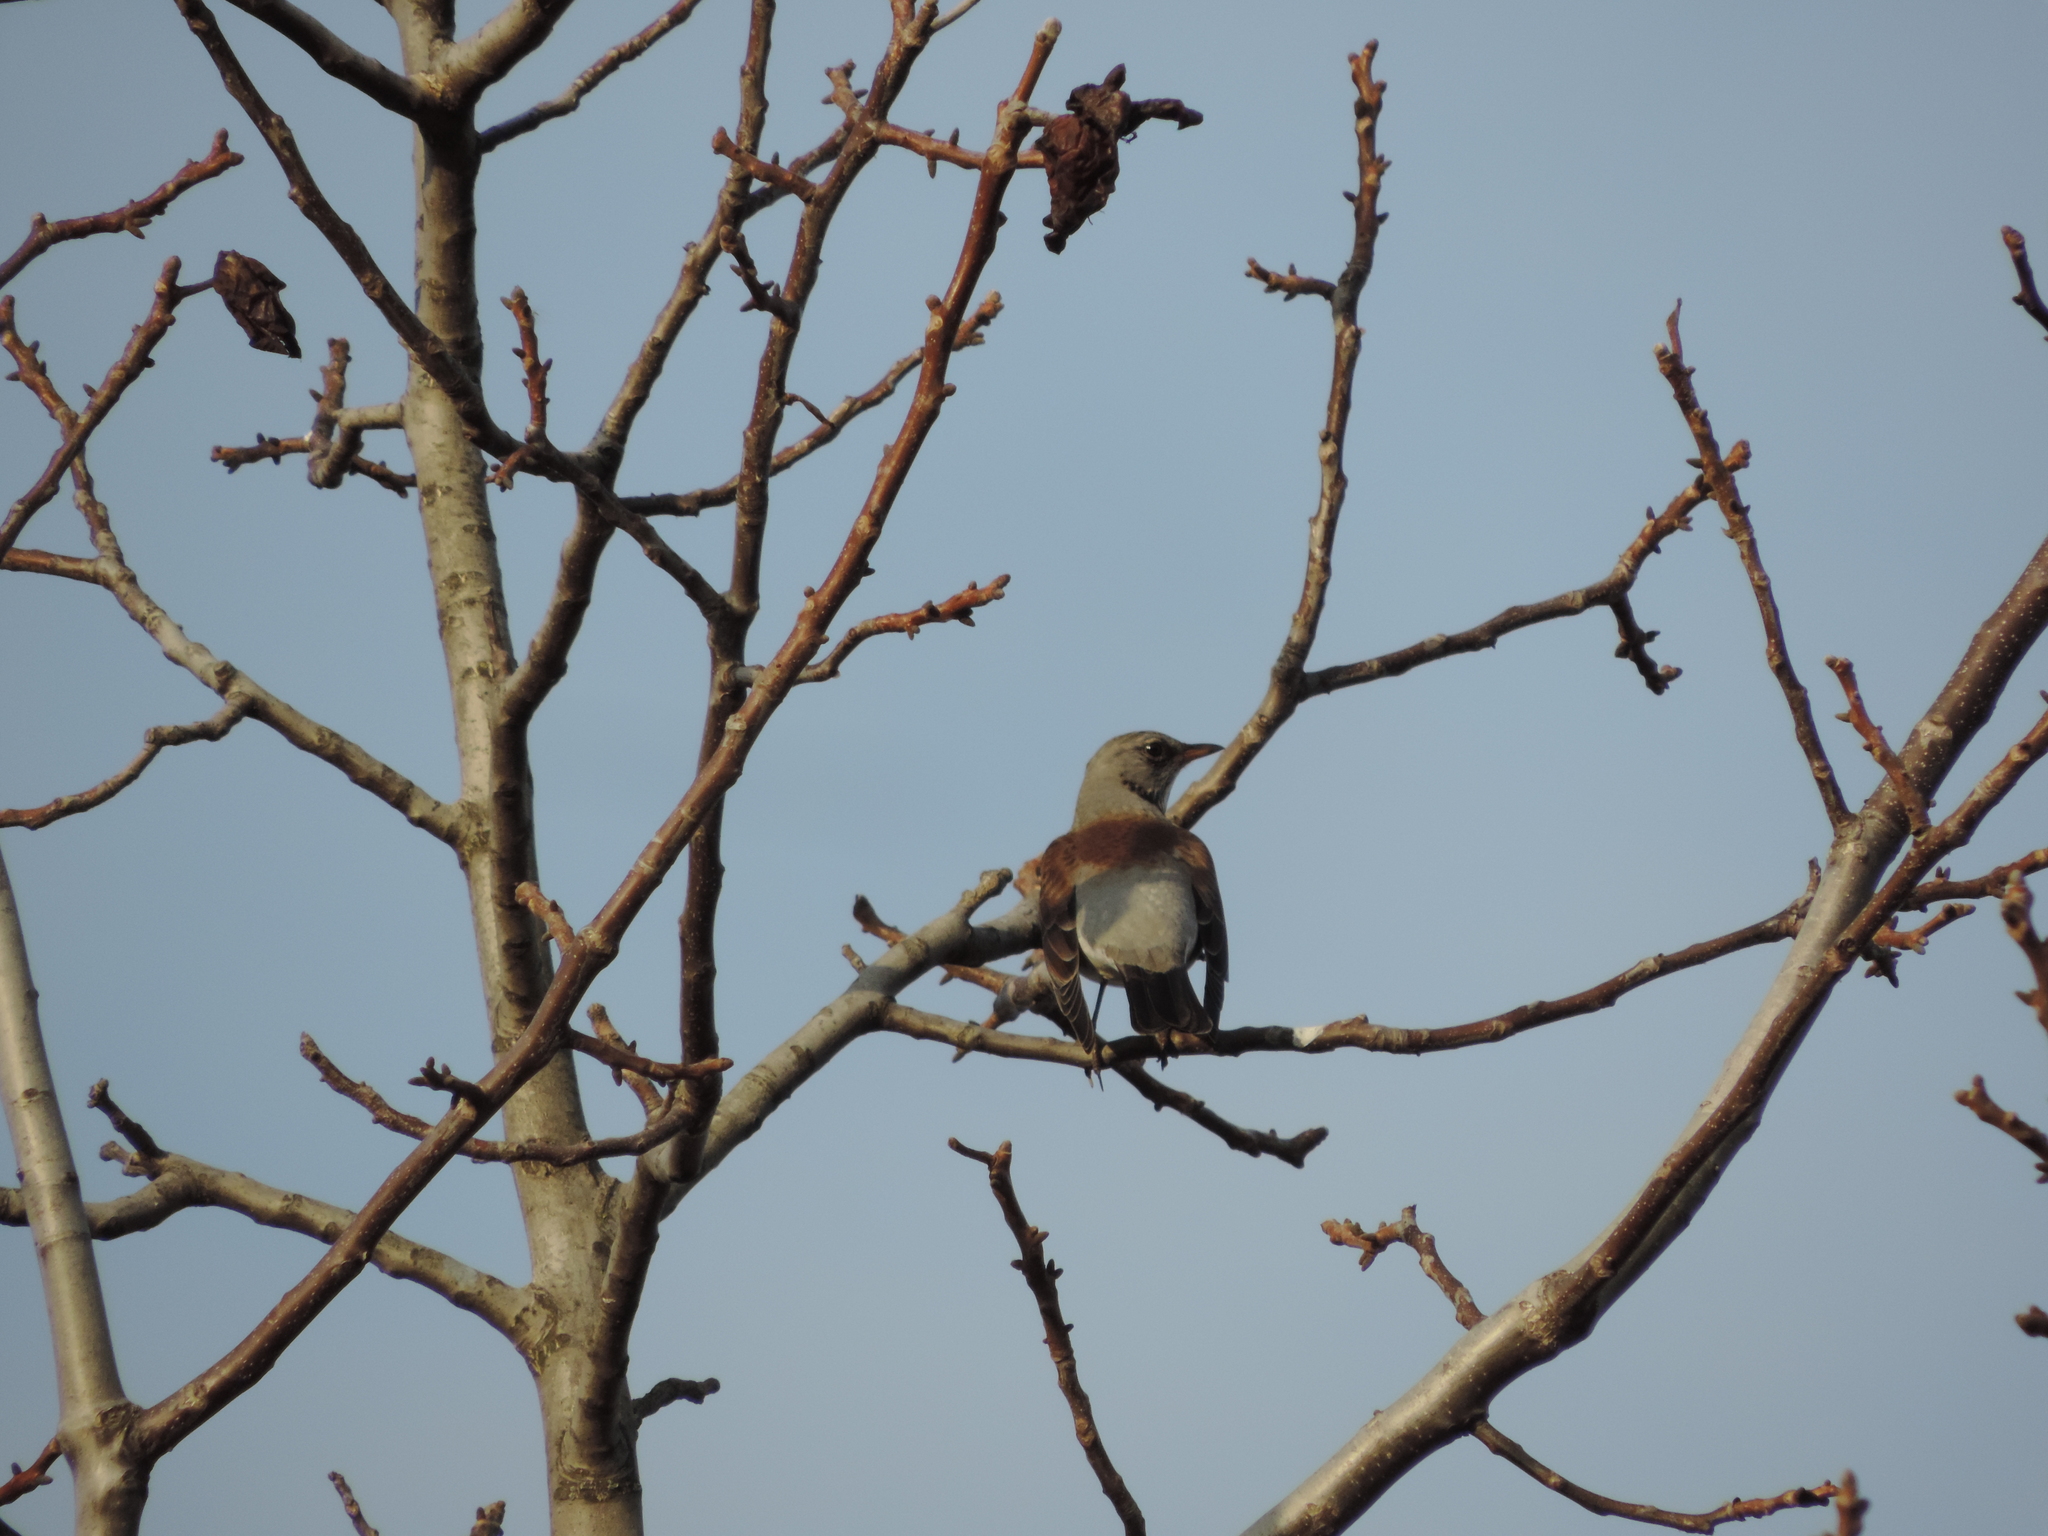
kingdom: Animalia
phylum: Chordata
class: Aves
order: Passeriformes
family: Turdidae
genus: Turdus
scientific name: Turdus pilaris
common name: Fieldfare
